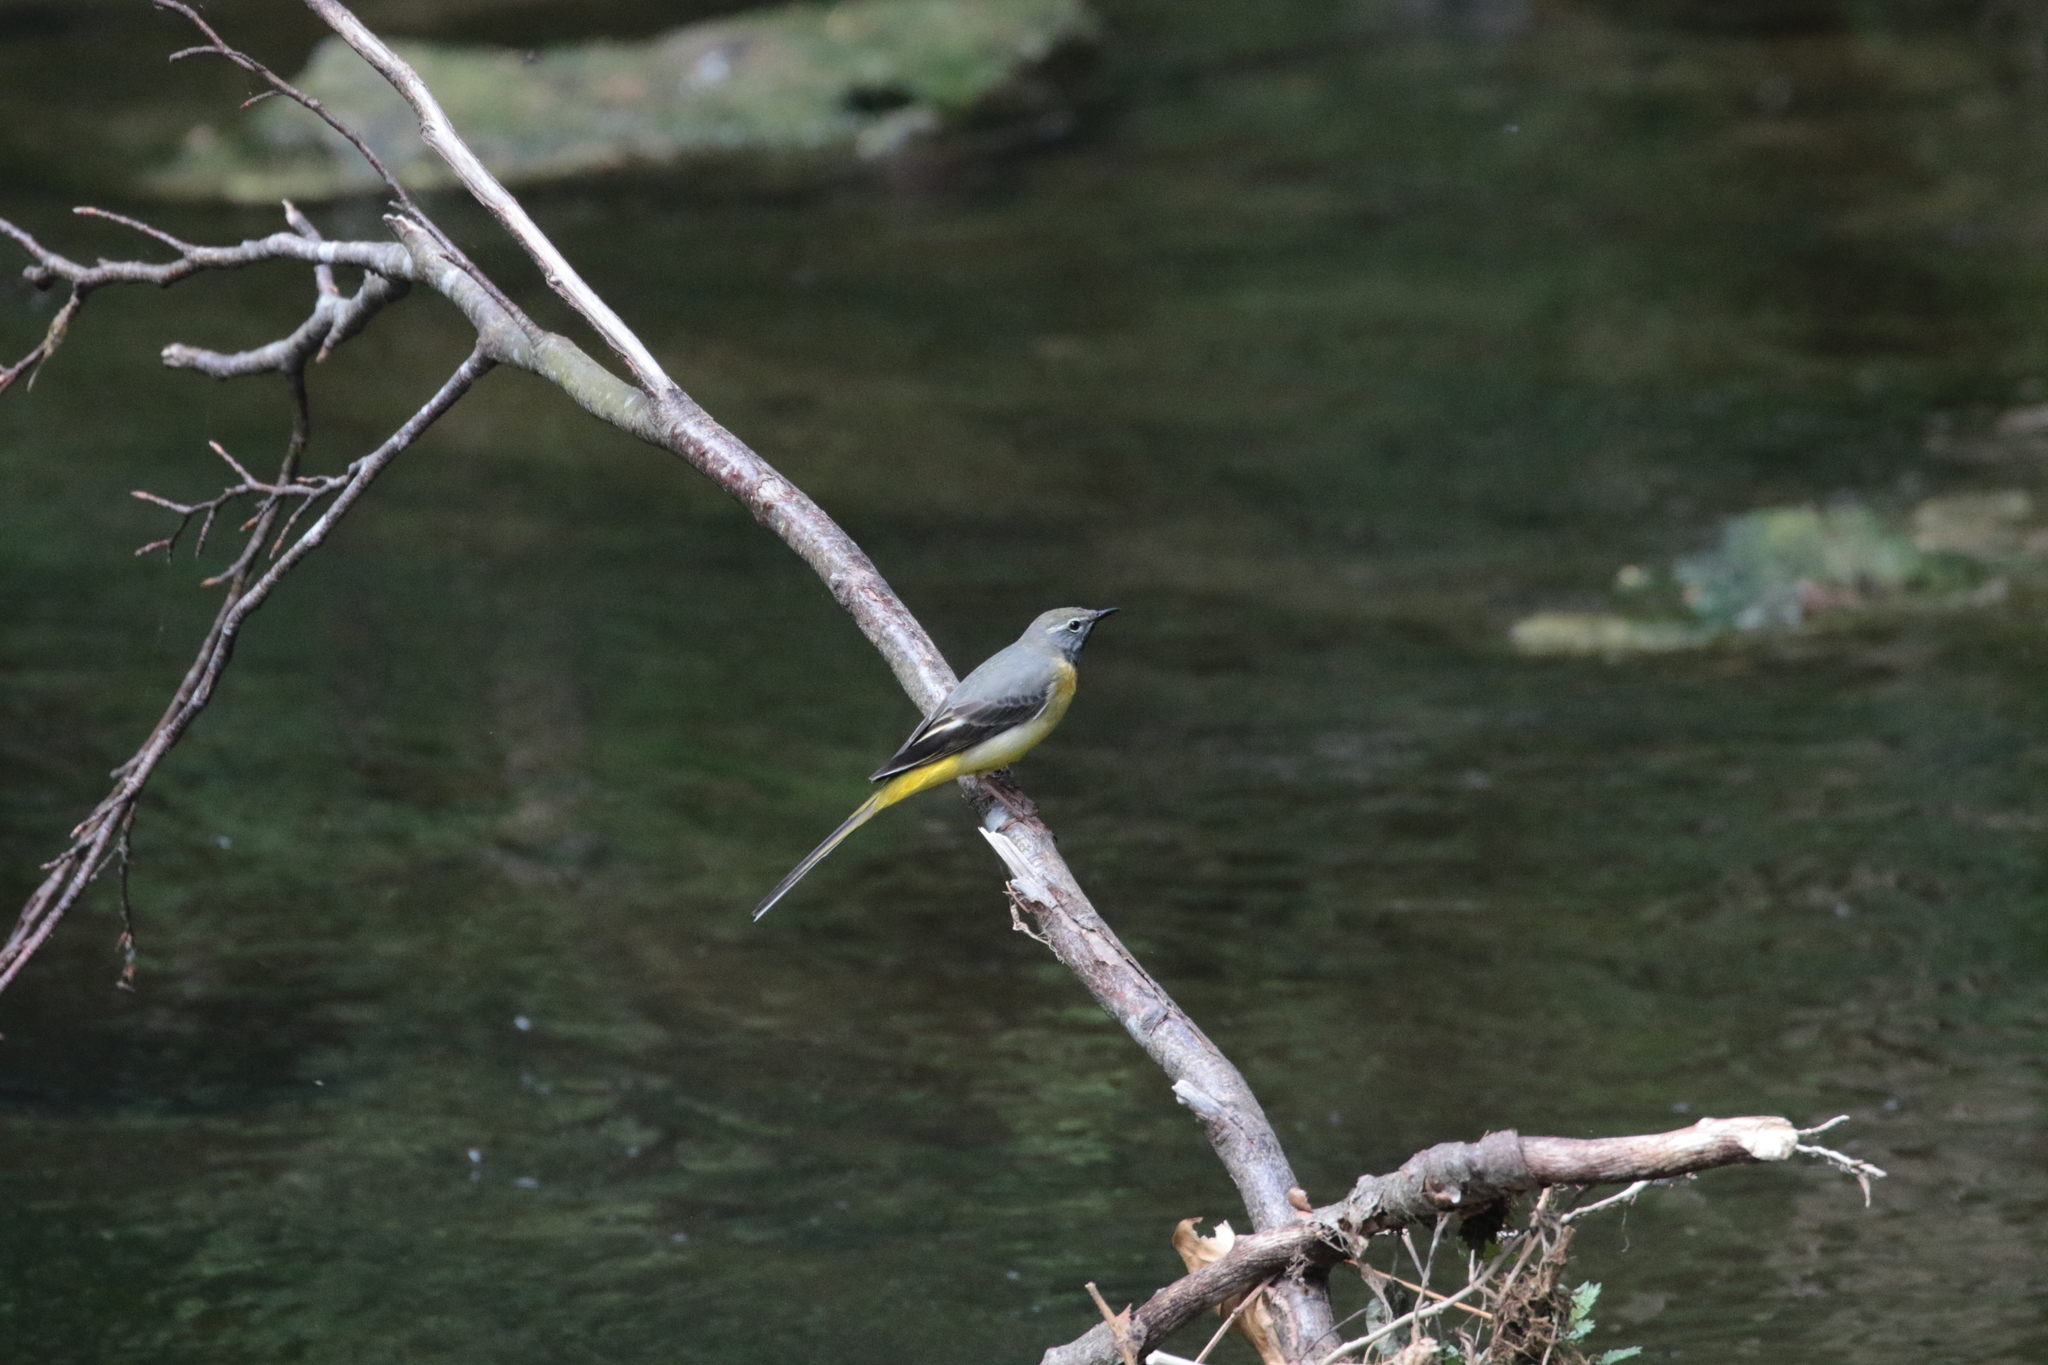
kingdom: Animalia
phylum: Chordata
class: Aves
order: Passeriformes
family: Motacillidae
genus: Motacilla
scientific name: Motacilla cinerea
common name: Grey wagtail
